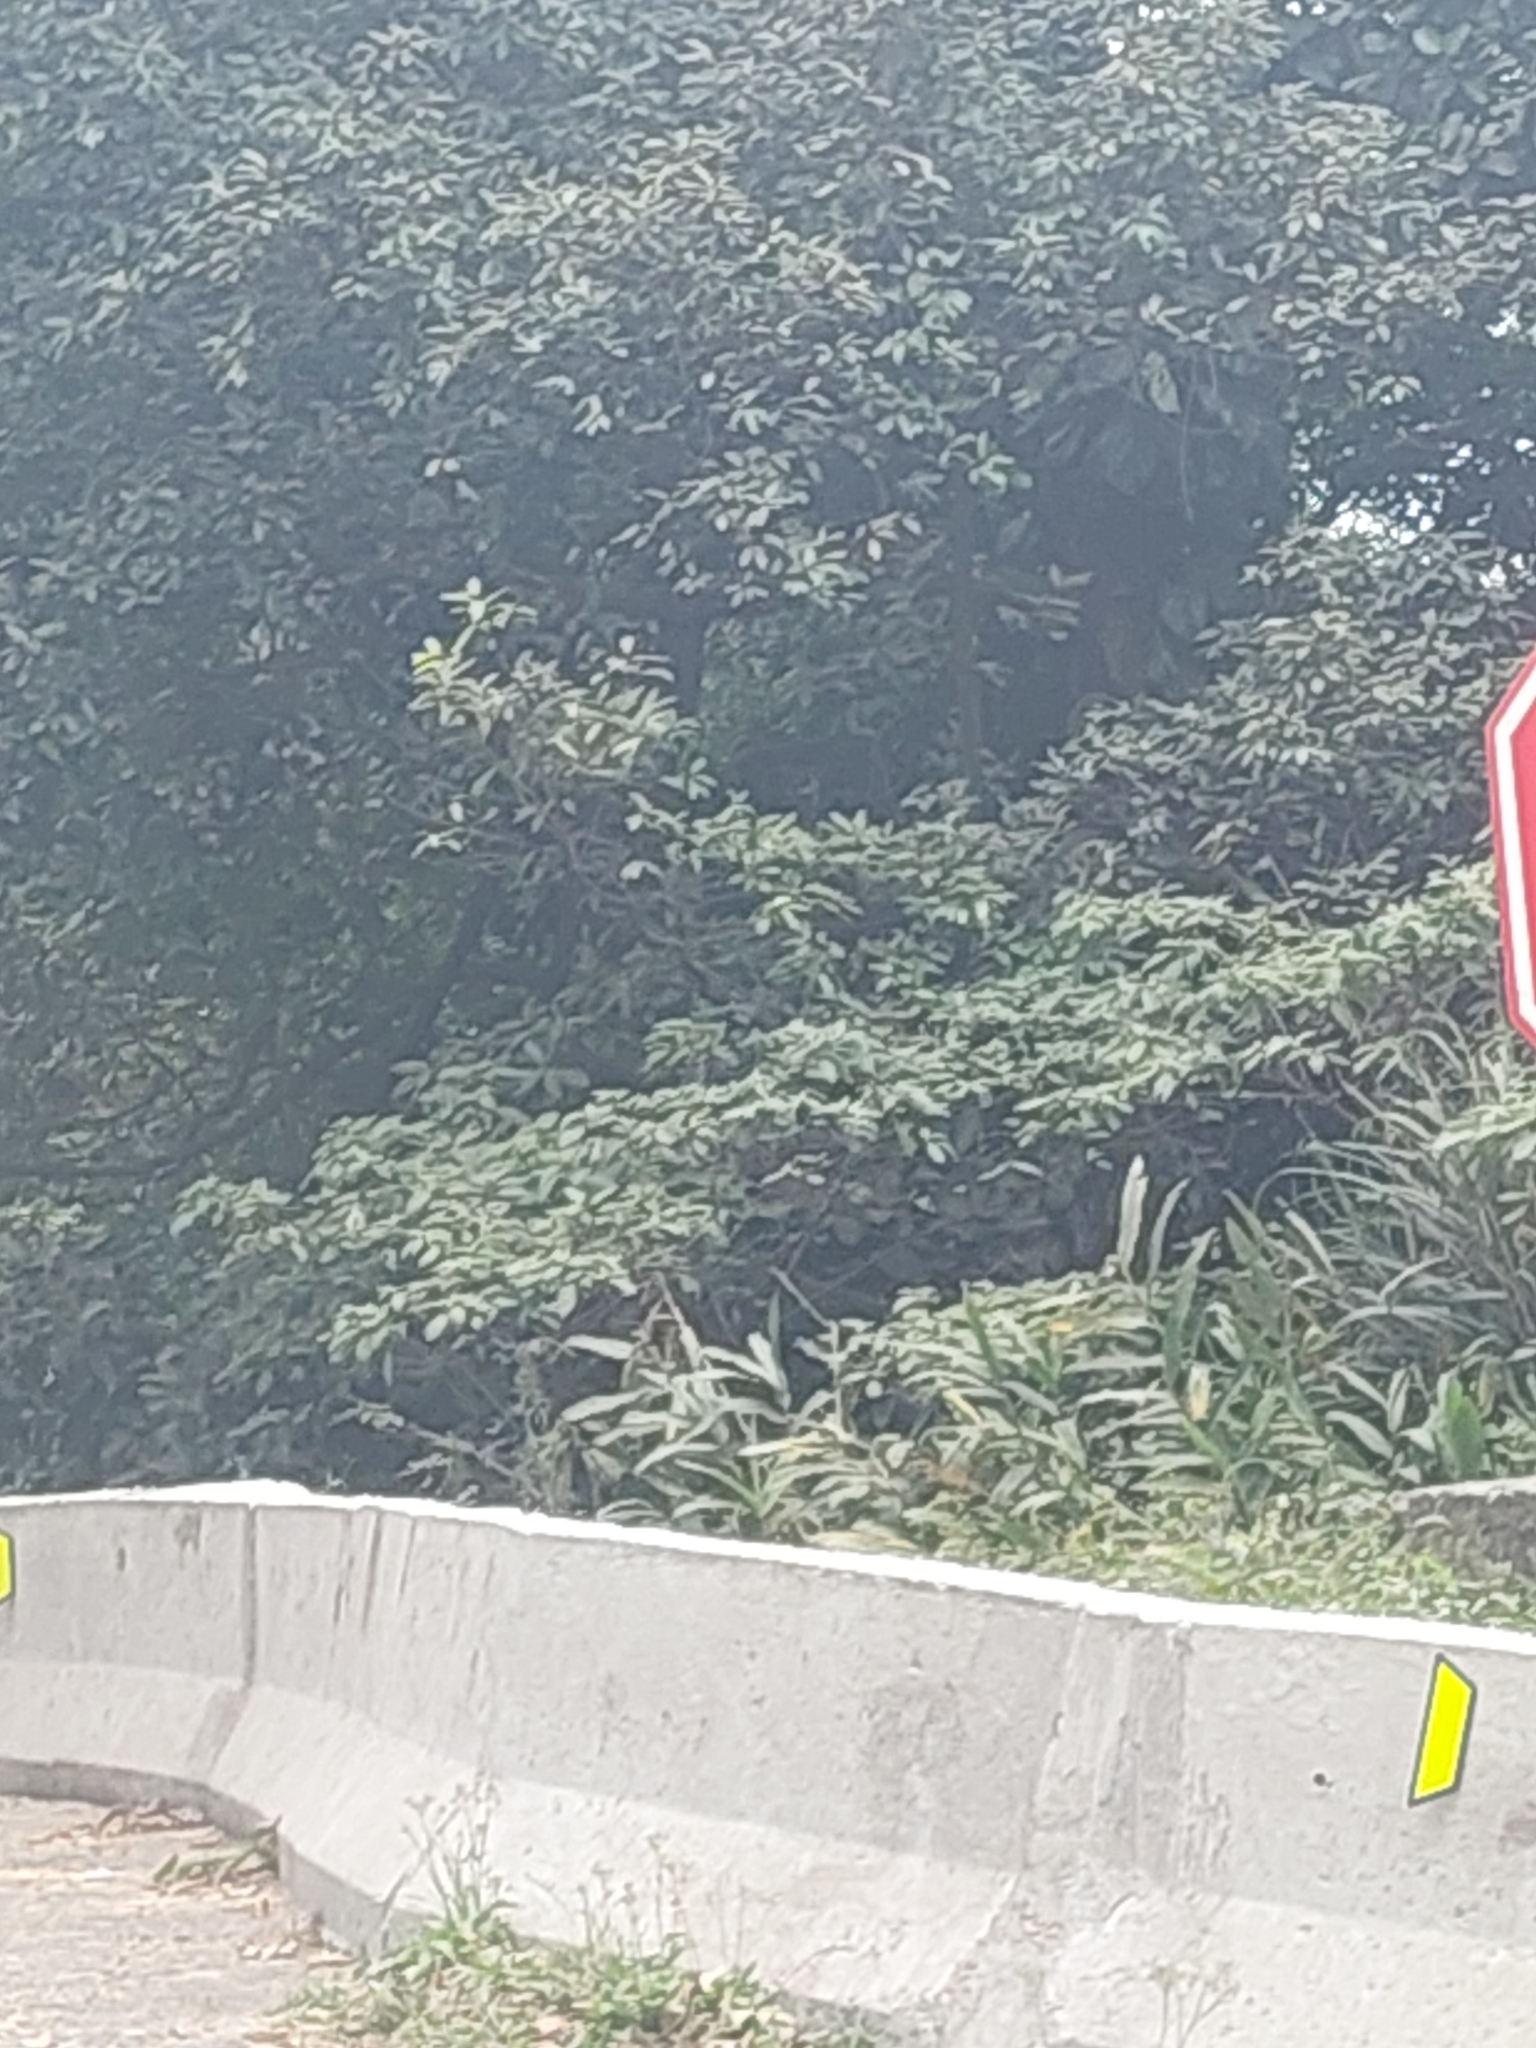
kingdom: Plantae
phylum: Tracheophyta
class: Liliopsida
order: Zingiberales
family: Zingiberaceae
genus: Hedychium
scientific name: Hedychium coronarium
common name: White garland-lily
